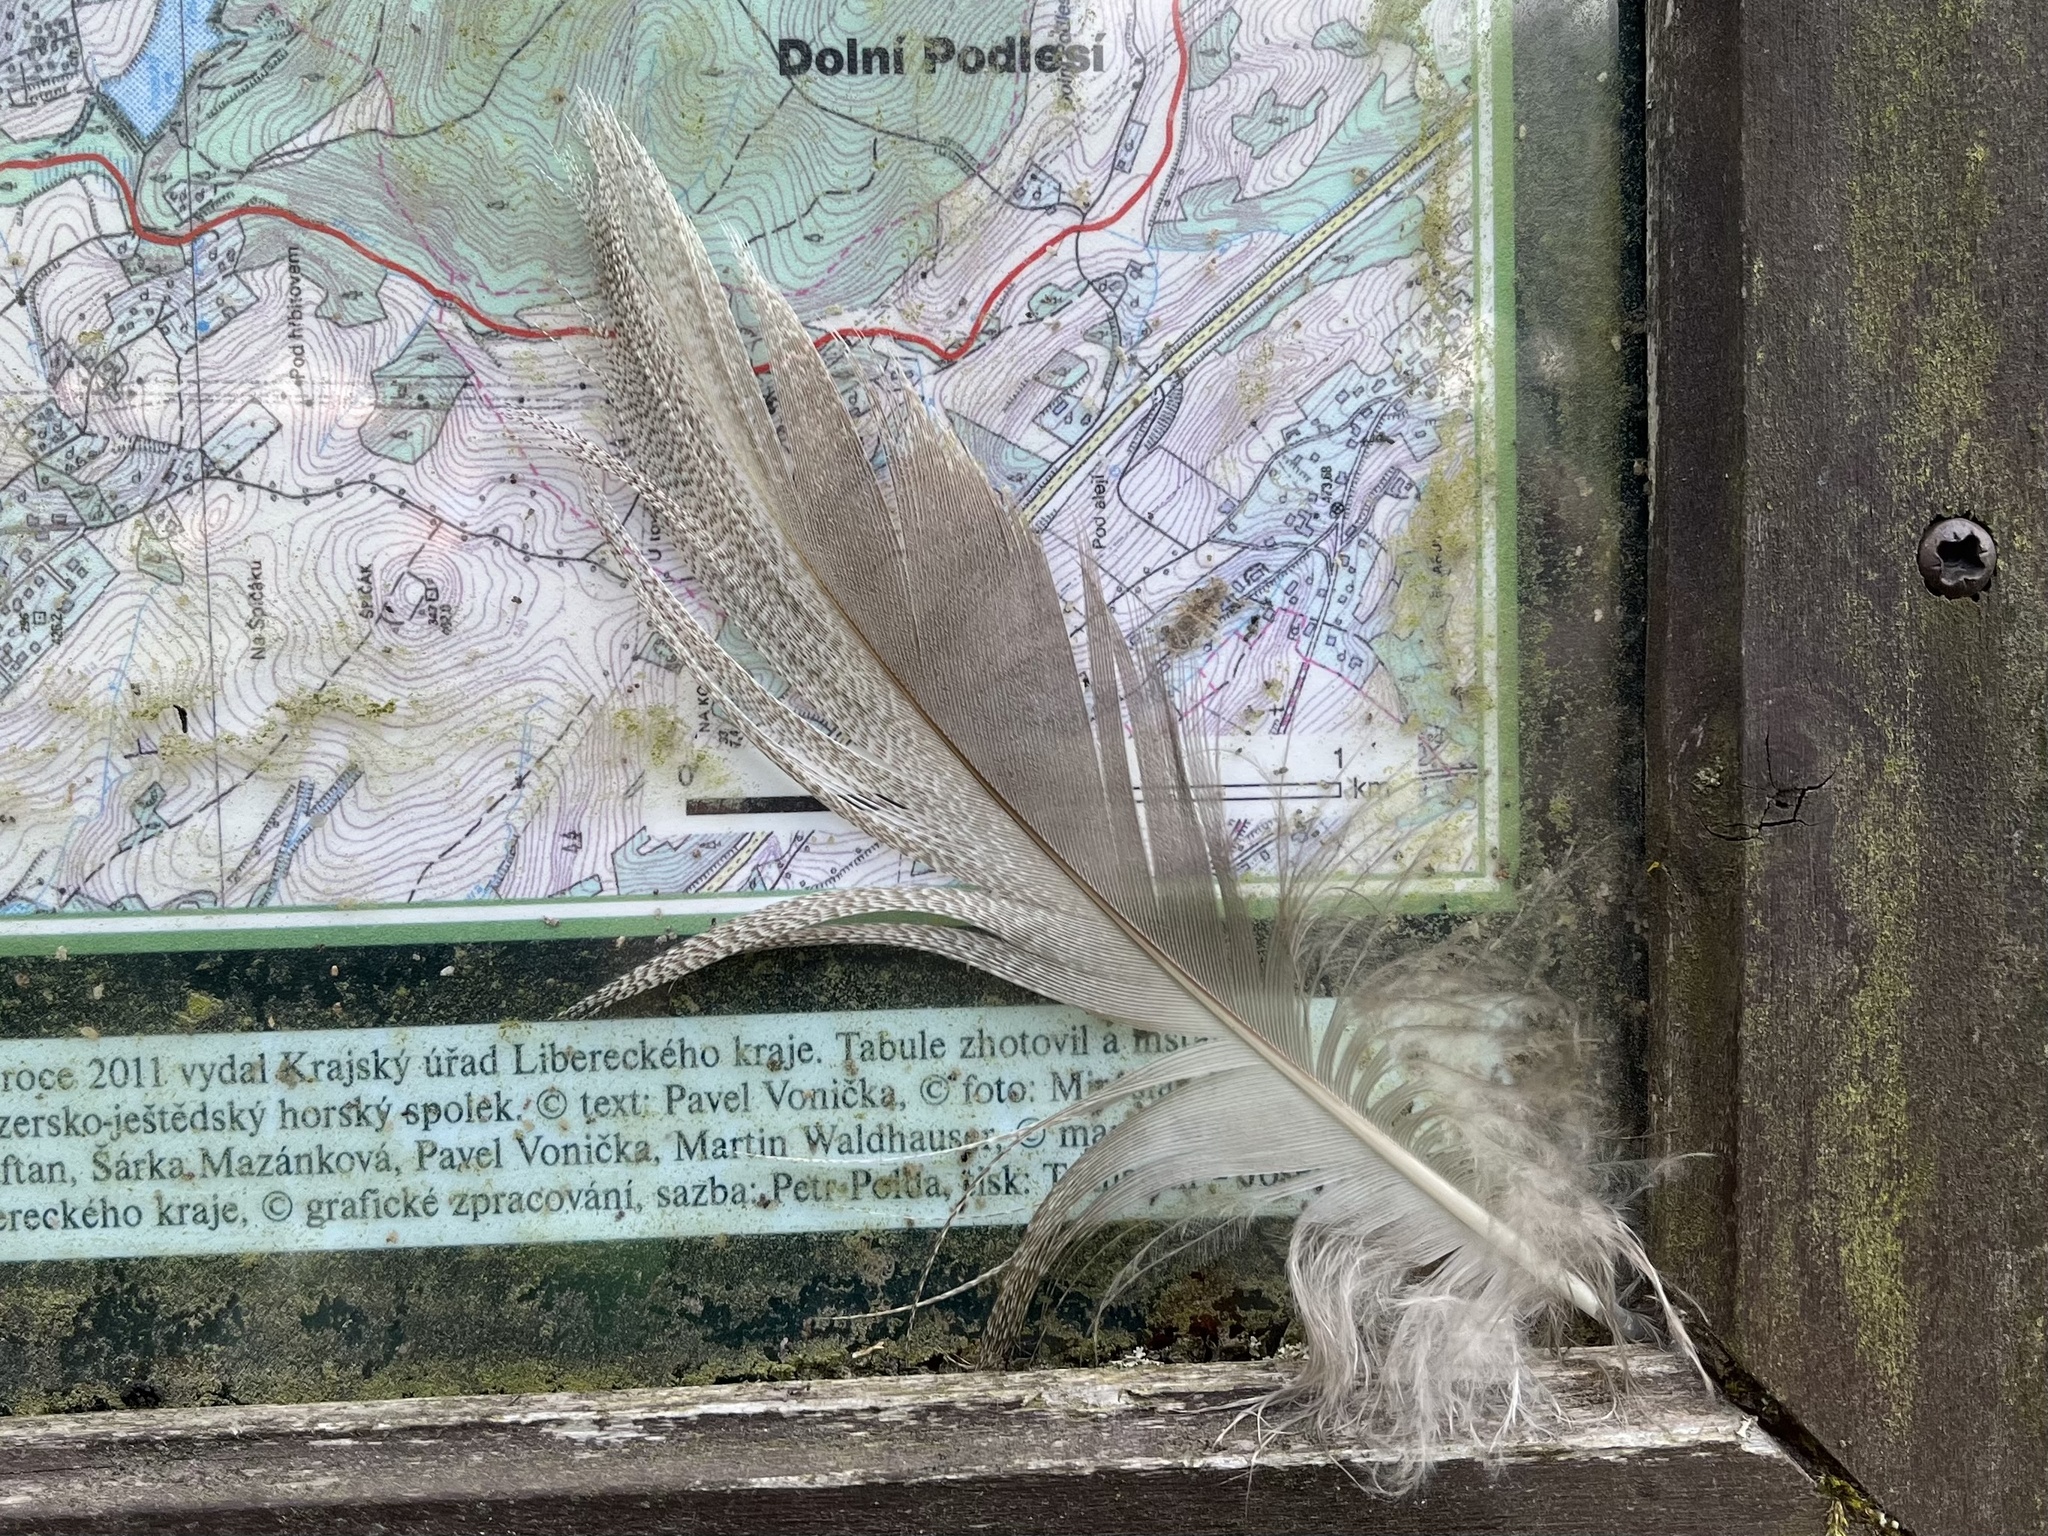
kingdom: Animalia
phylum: Chordata
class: Aves
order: Anseriformes
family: Anatidae
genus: Anas
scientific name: Anas platyrhynchos
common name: Mallard
